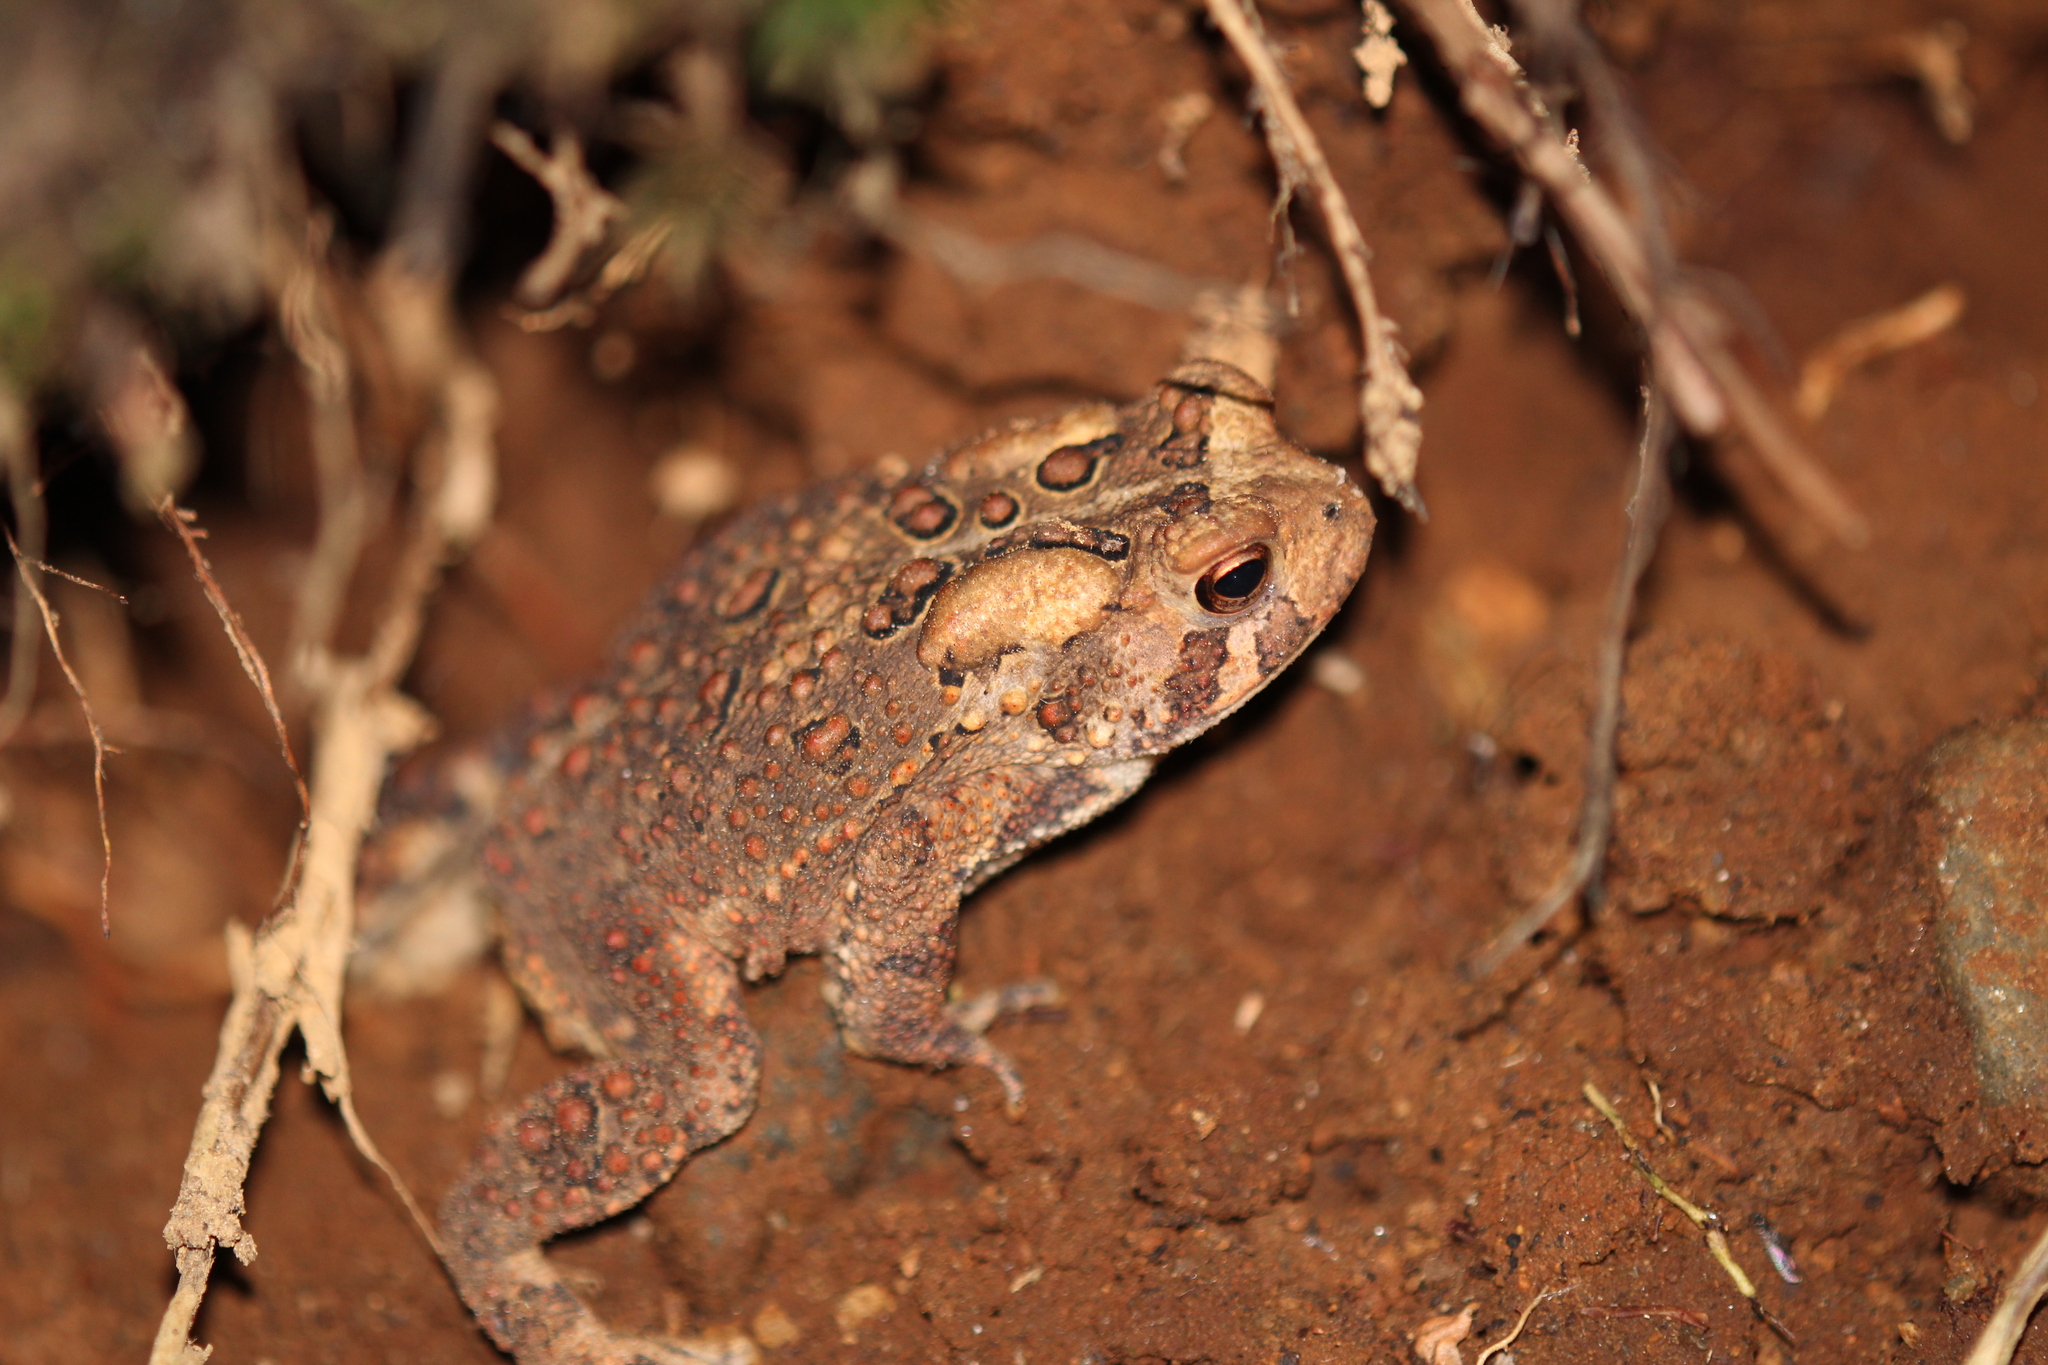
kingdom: Animalia
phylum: Chordata
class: Amphibia
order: Anura
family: Bufonidae
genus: Anaxyrus
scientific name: Anaxyrus americanus
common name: American toad
